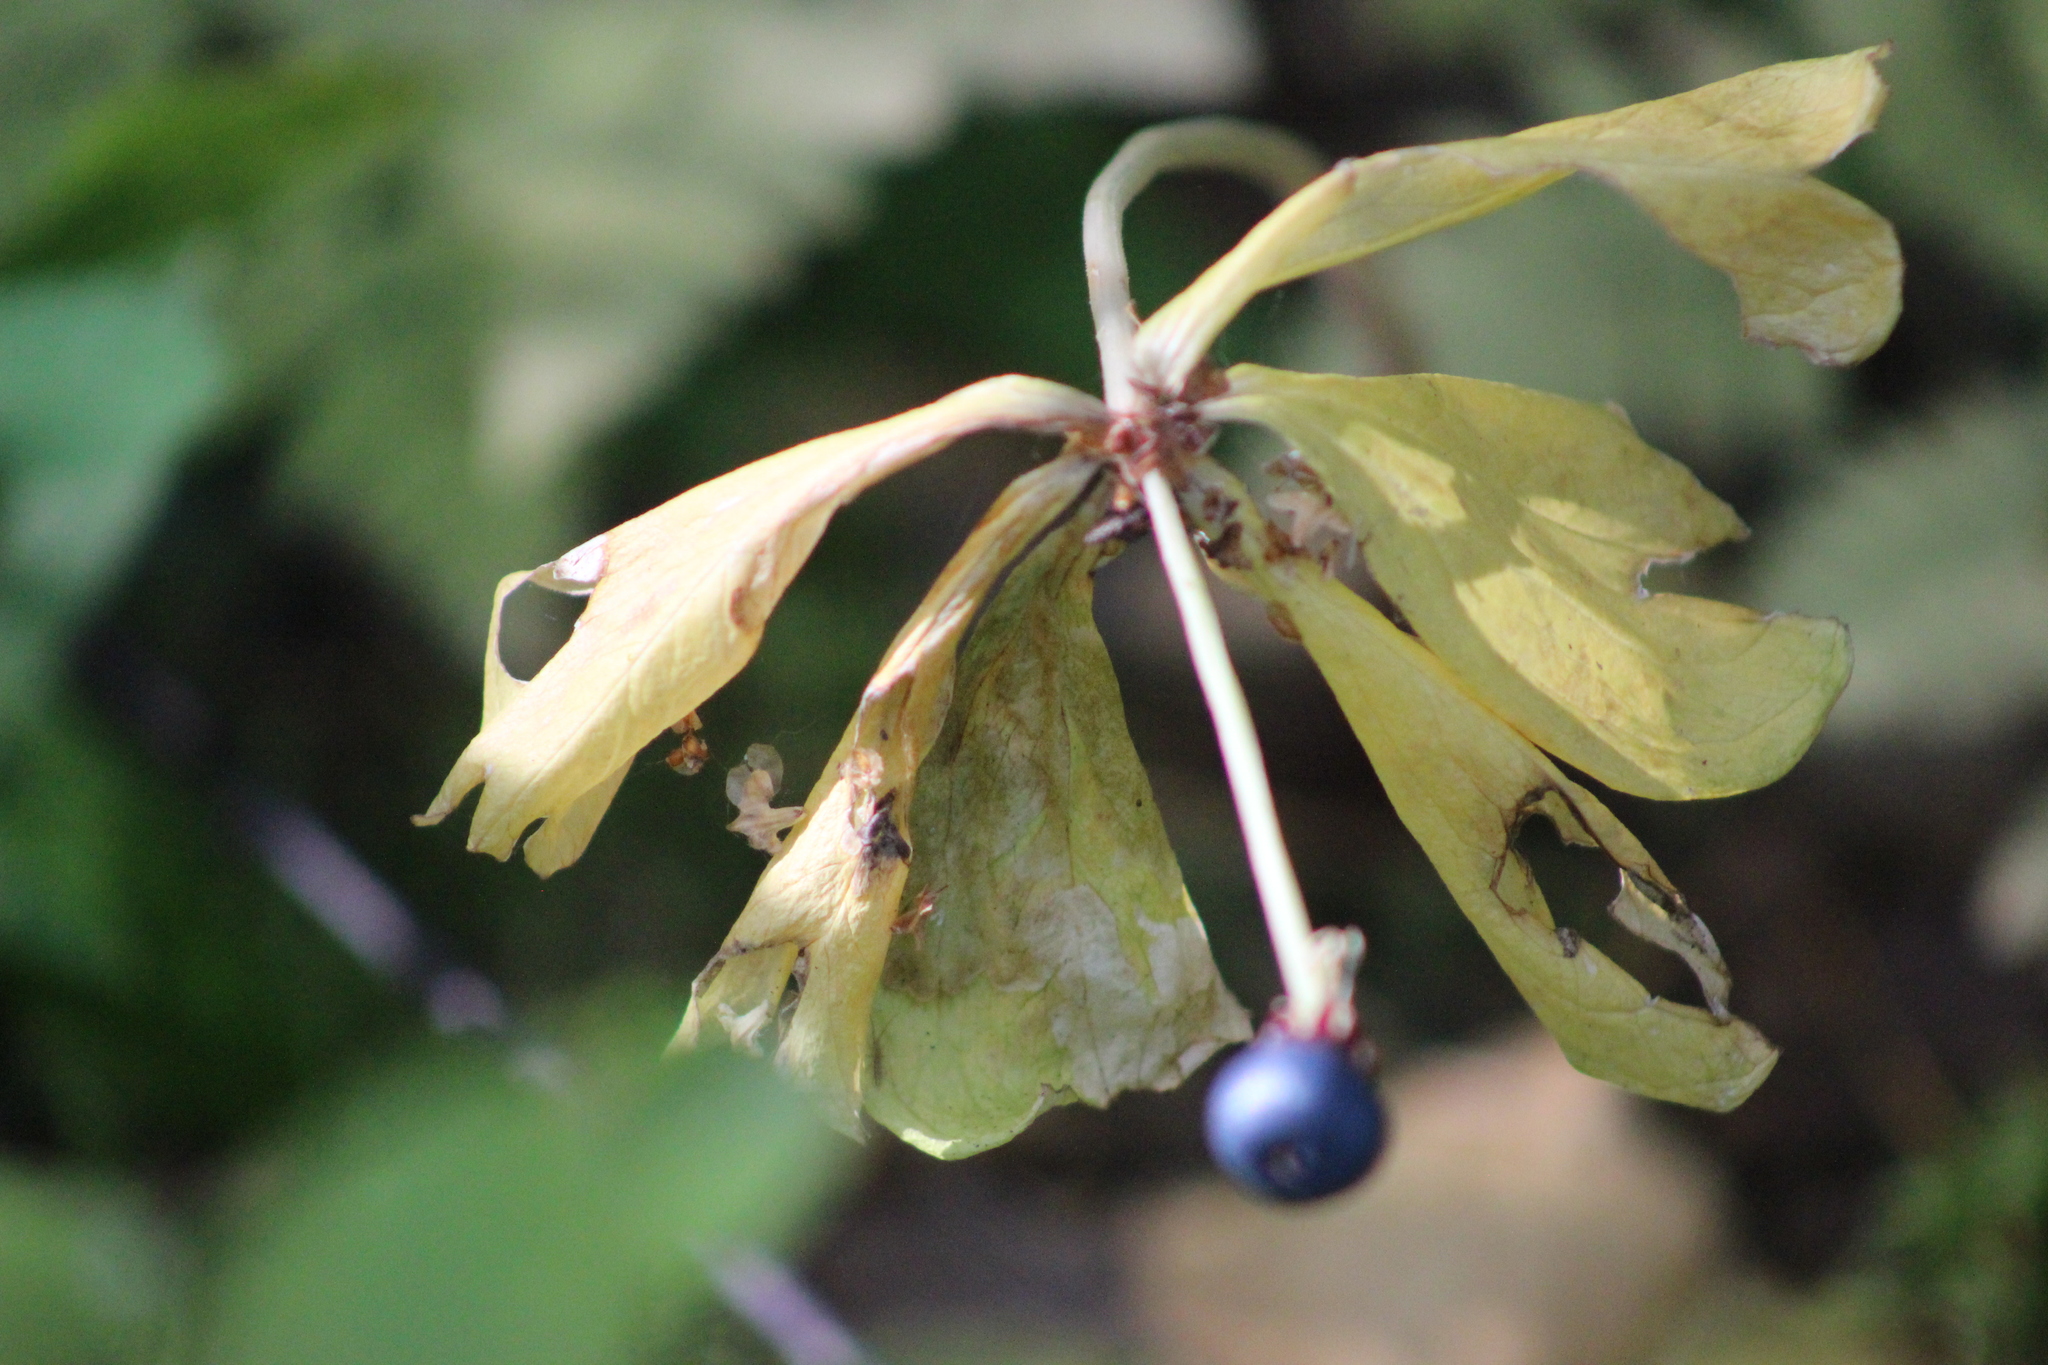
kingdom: Plantae
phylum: Tracheophyta
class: Liliopsida
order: Liliales
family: Melanthiaceae
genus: Paris
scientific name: Paris quadrifolia
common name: Herb-paris
